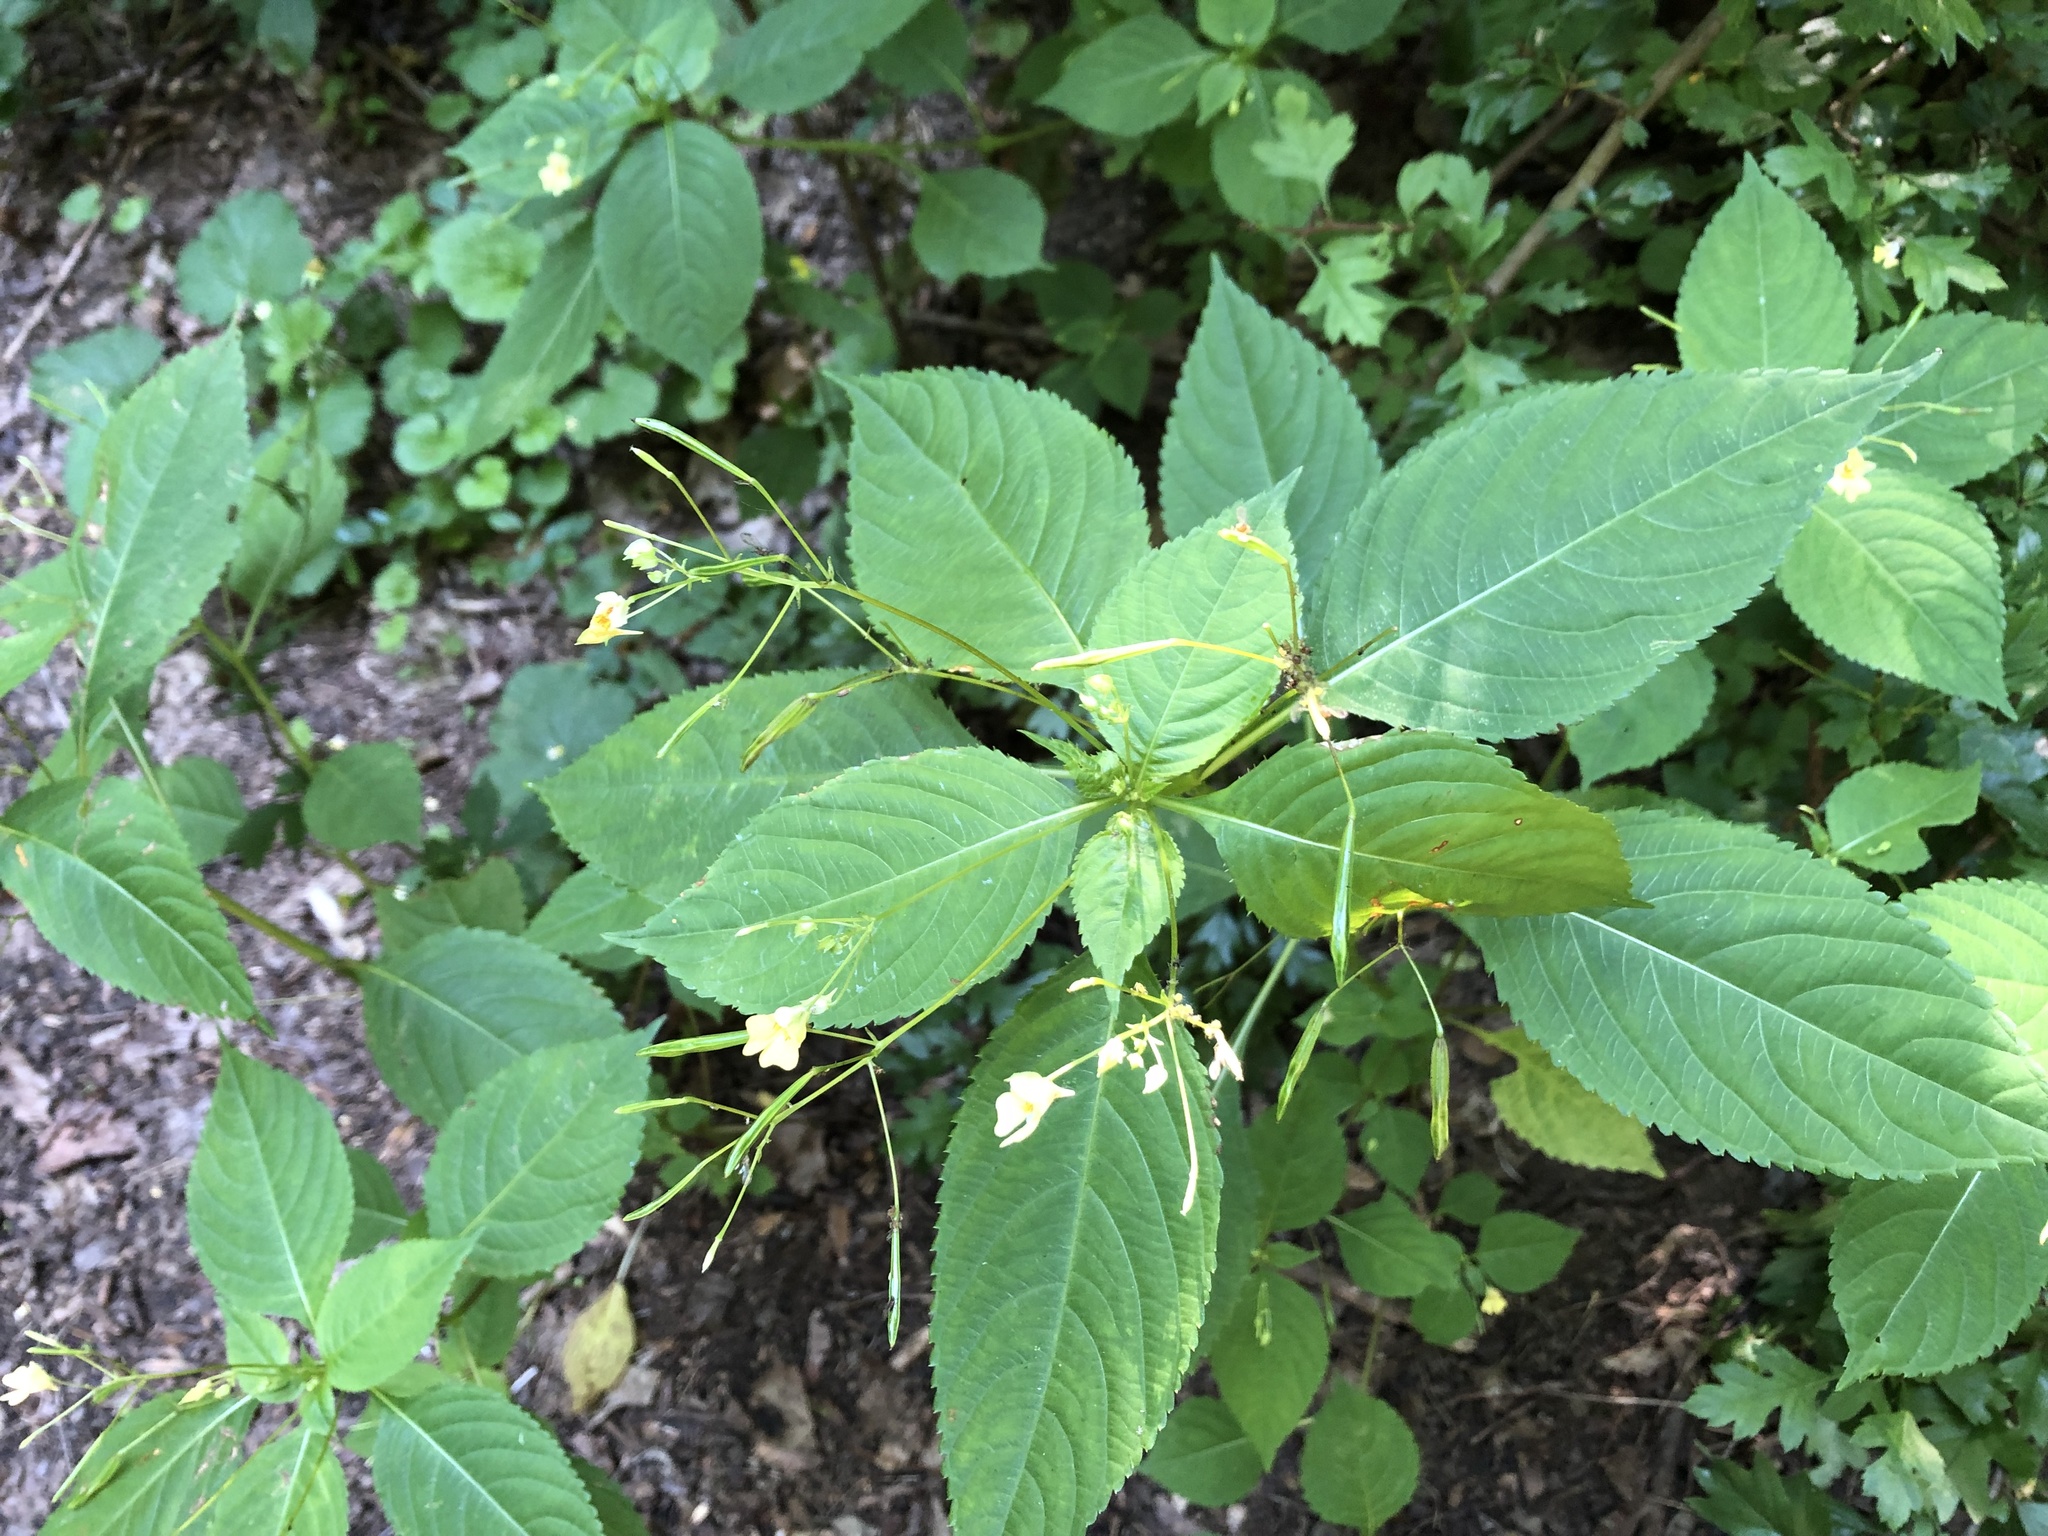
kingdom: Plantae
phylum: Tracheophyta
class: Magnoliopsida
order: Ericales
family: Balsaminaceae
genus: Impatiens
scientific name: Impatiens parviflora
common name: Small balsam
